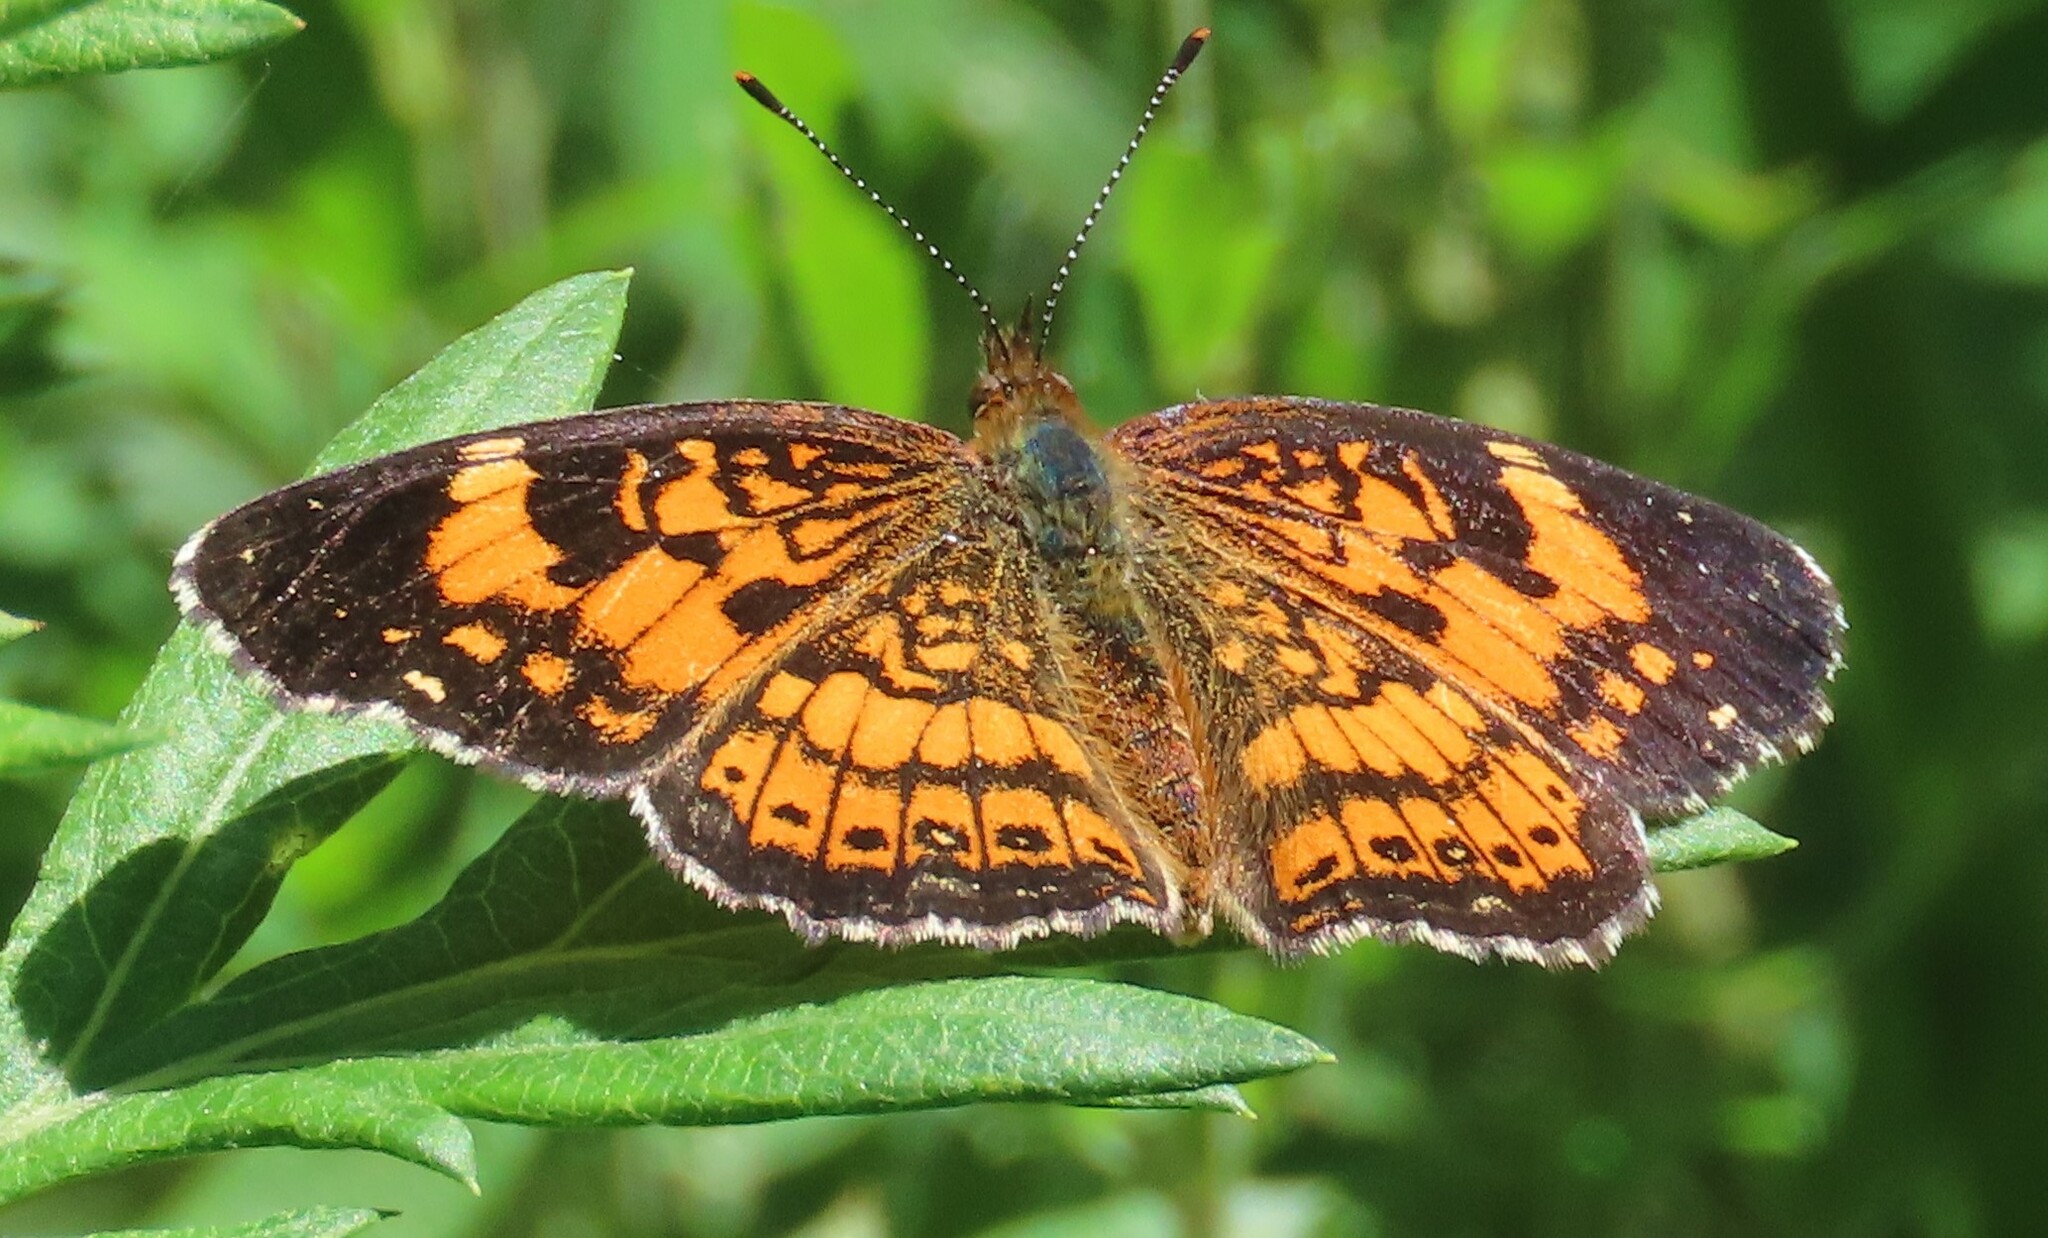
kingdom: Animalia
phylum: Arthropoda
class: Insecta
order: Lepidoptera
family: Nymphalidae
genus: Chlosyne
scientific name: Chlosyne nycteis
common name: Silvery checkerspot
